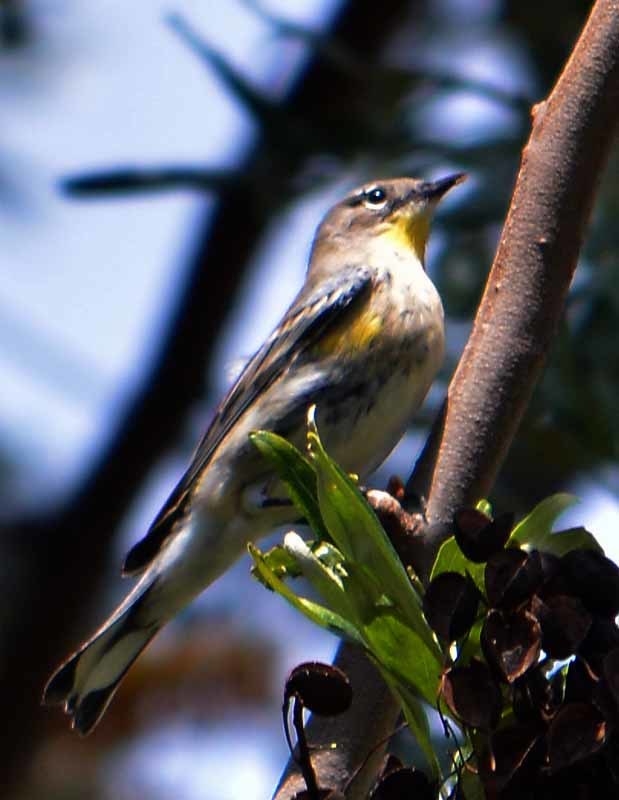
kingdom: Animalia
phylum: Chordata
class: Aves
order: Passeriformes
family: Parulidae
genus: Setophaga
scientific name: Setophaga coronata
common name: Myrtle warbler
